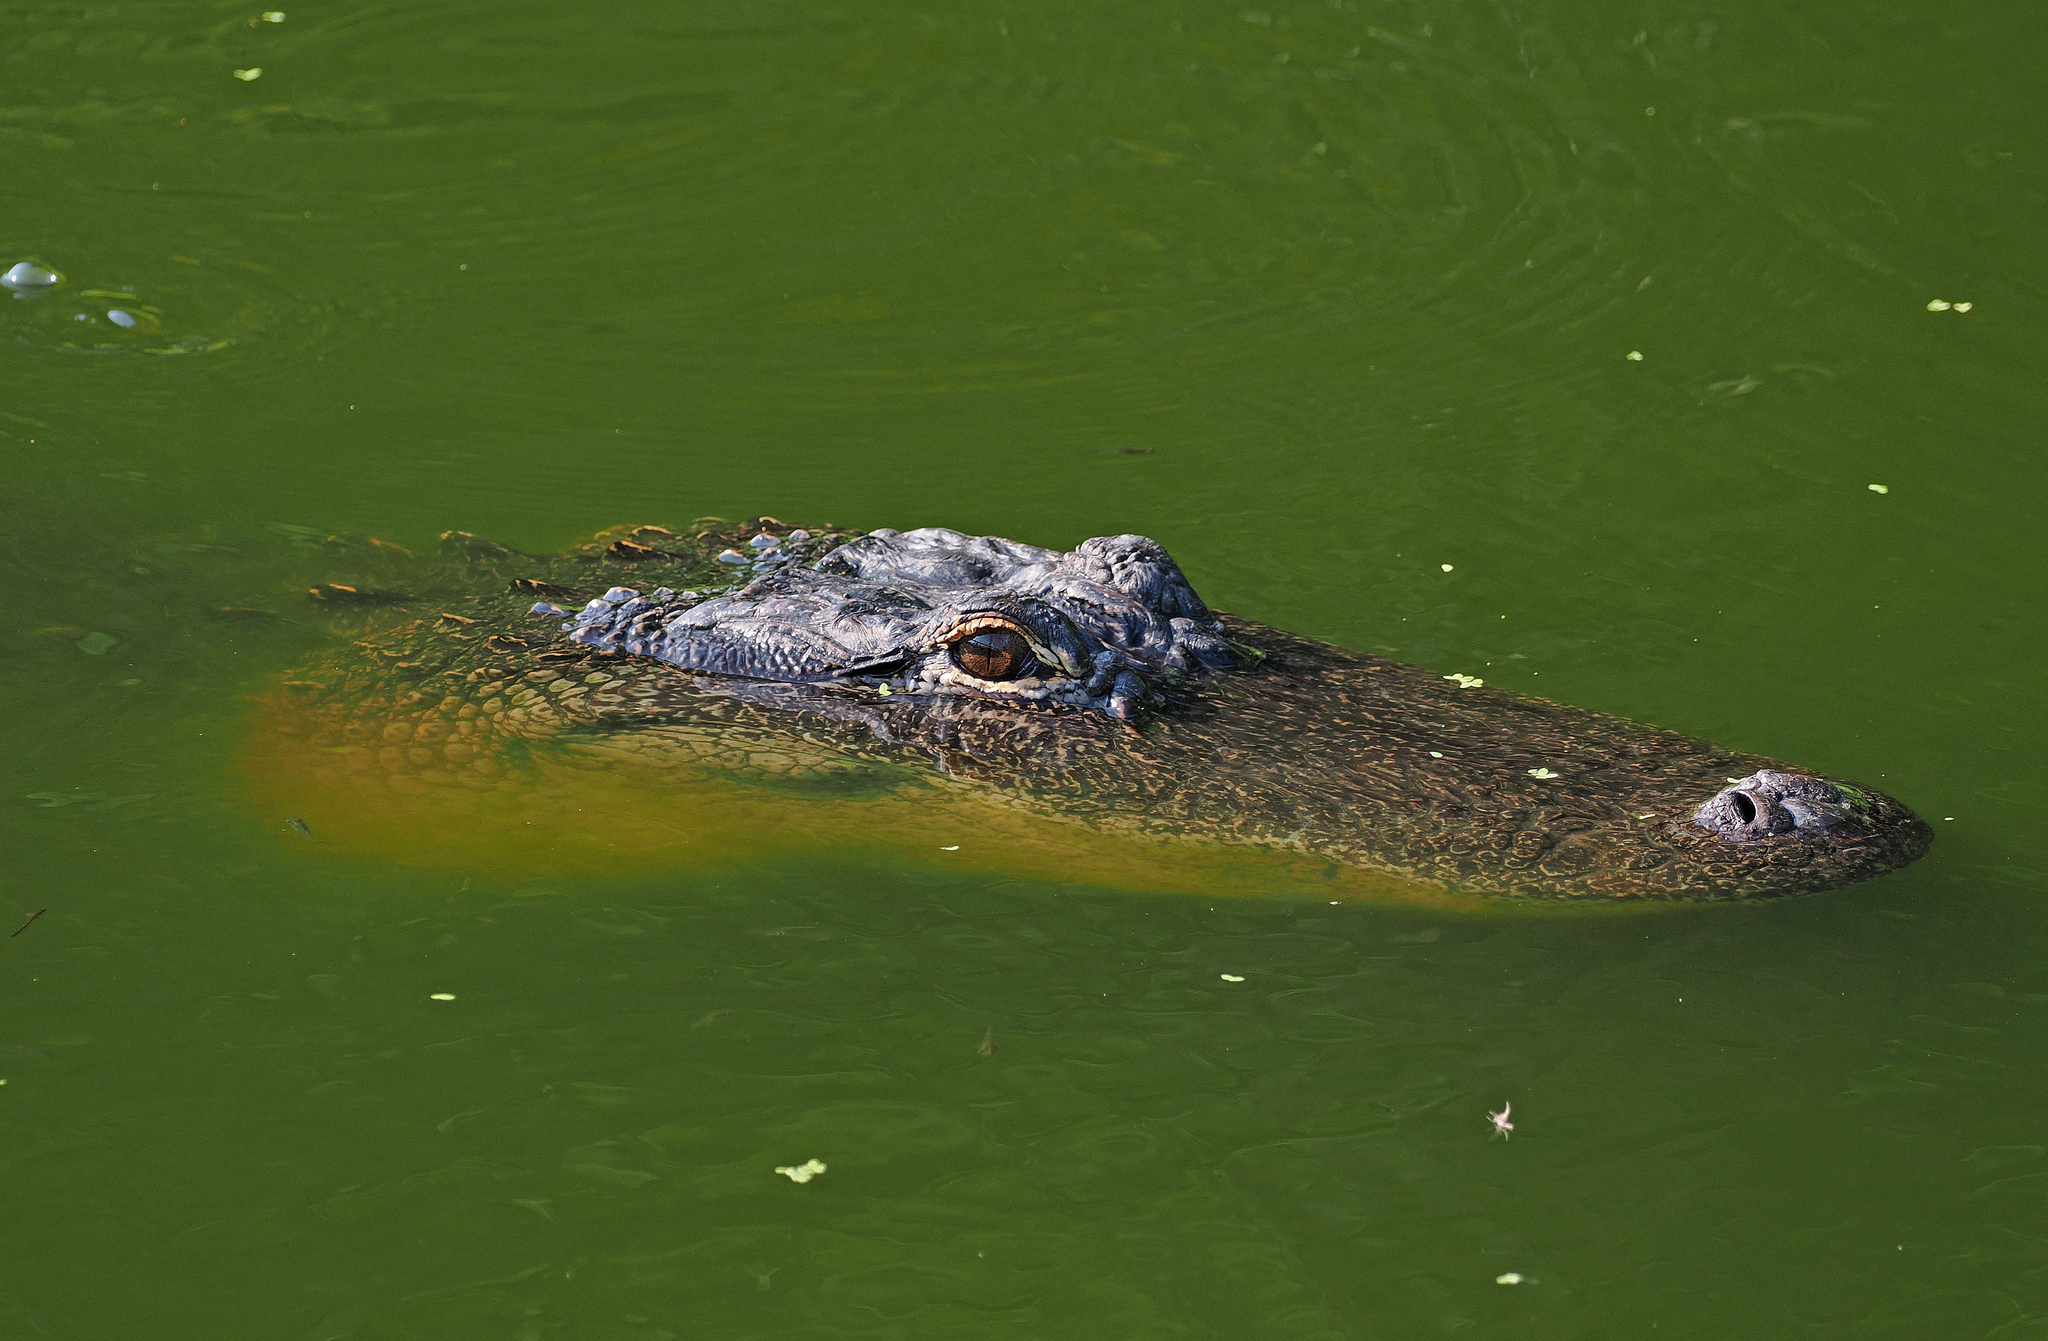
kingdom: Animalia
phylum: Chordata
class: Crocodylia
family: Alligatoridae
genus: Alligator
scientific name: Alligator mississippiensis
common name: American alligator
